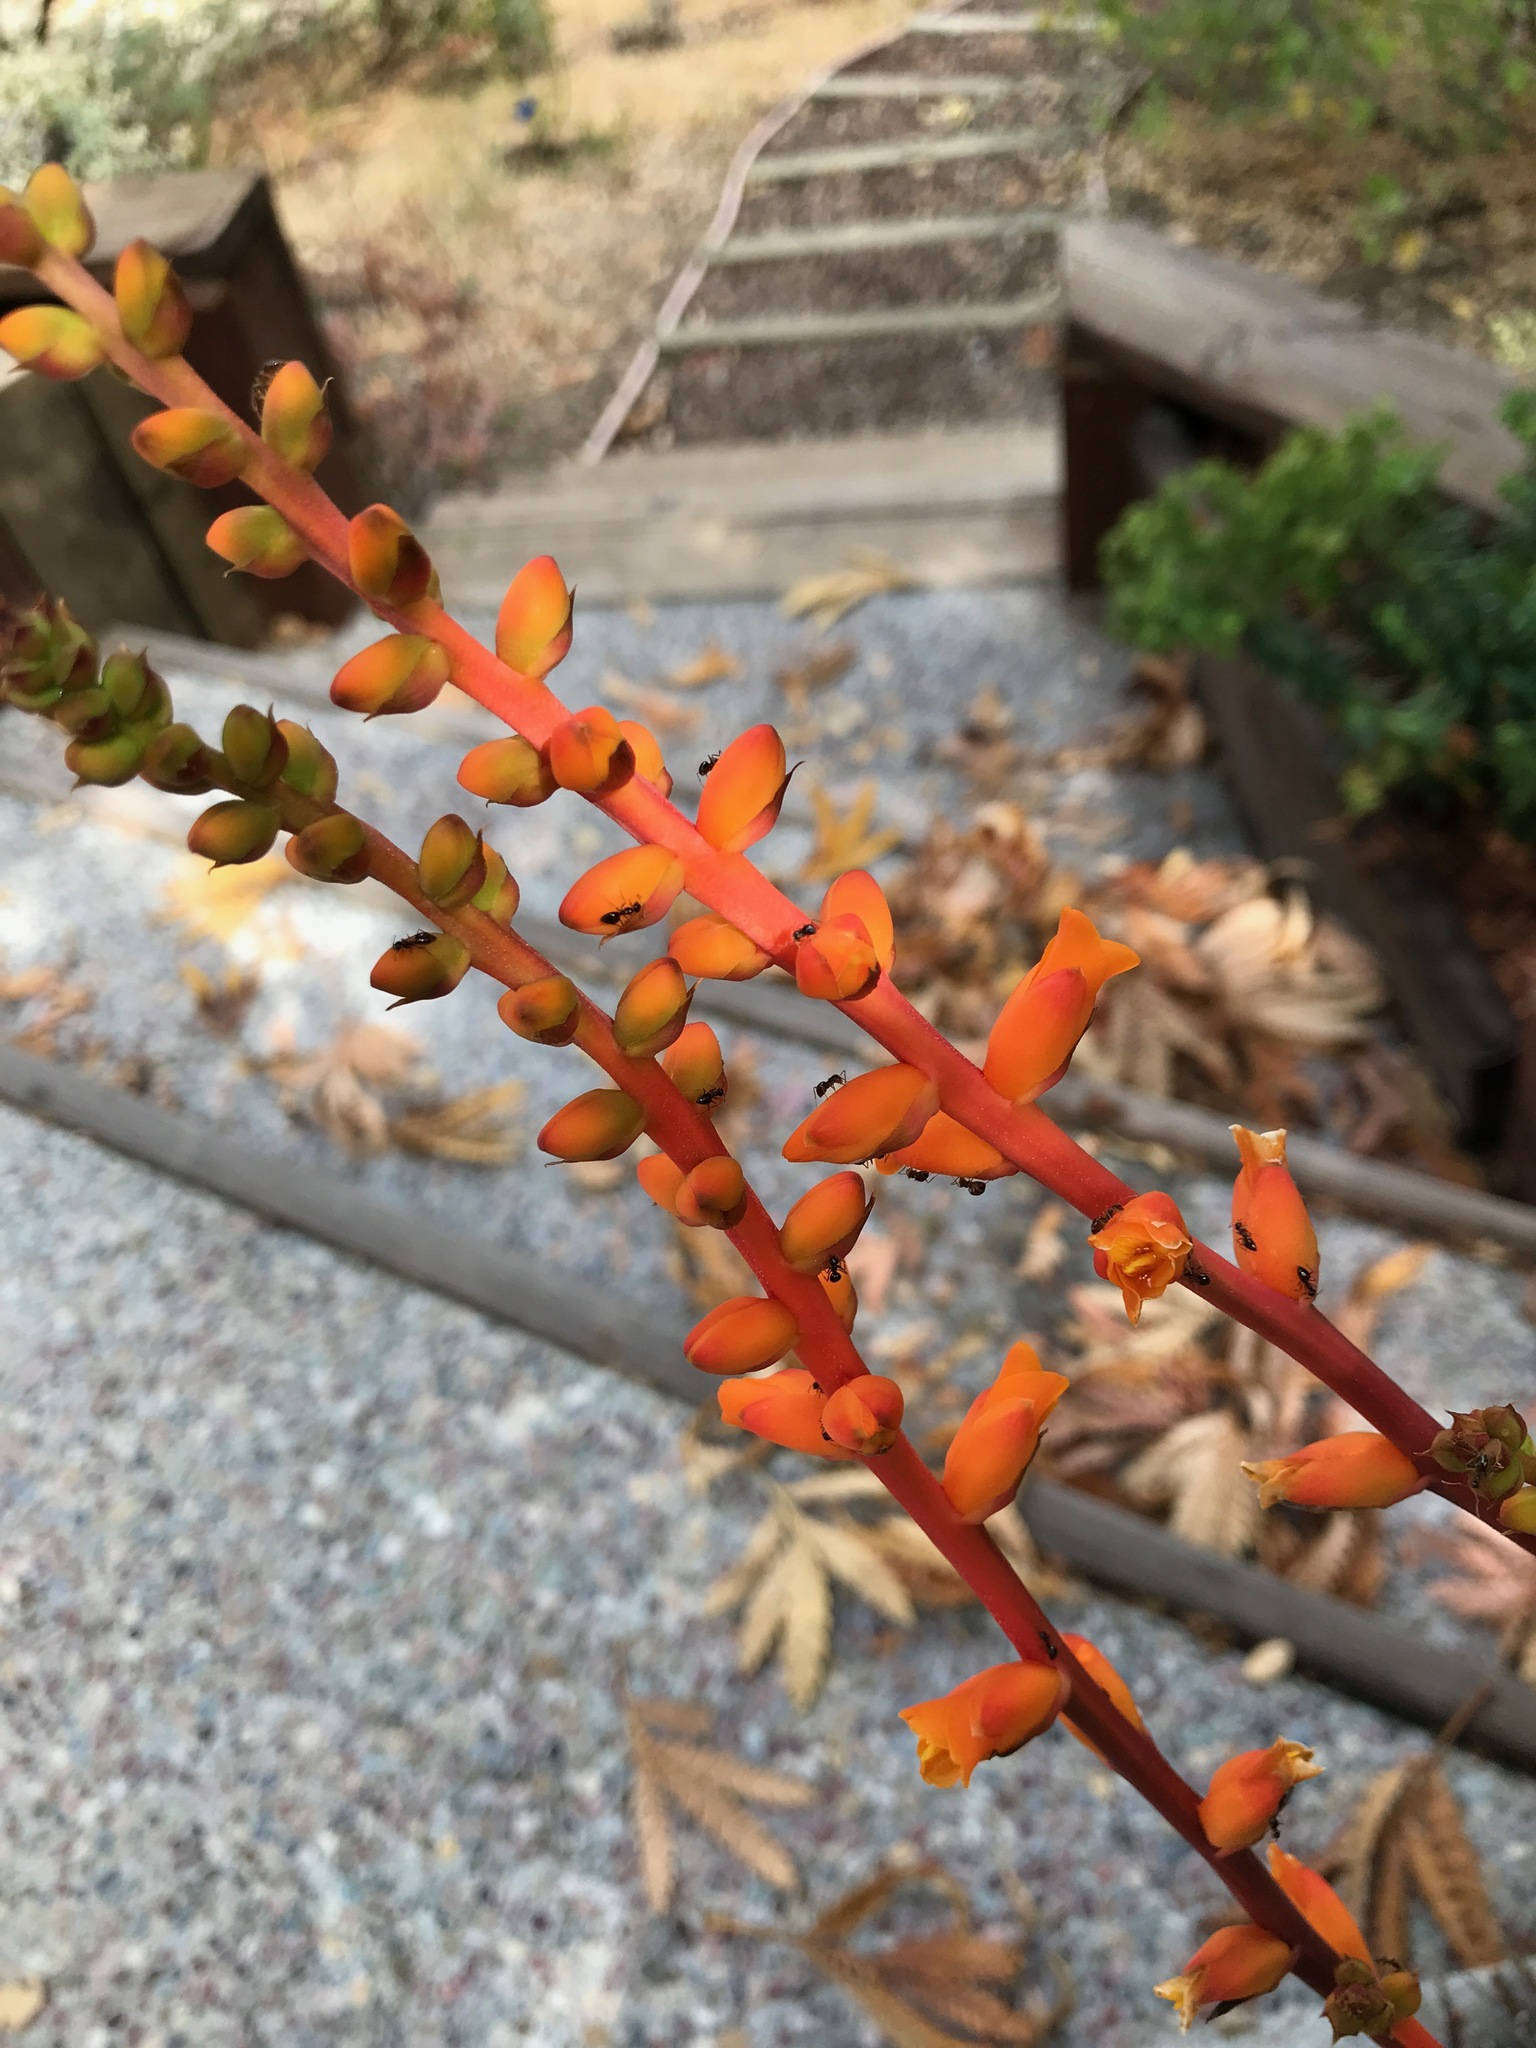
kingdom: Animalia
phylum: Arthropoda
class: Insecta
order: Hymenoptera
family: Formicidae
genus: Prenolepis
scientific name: Prenolepis imparis
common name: Small honey ant
